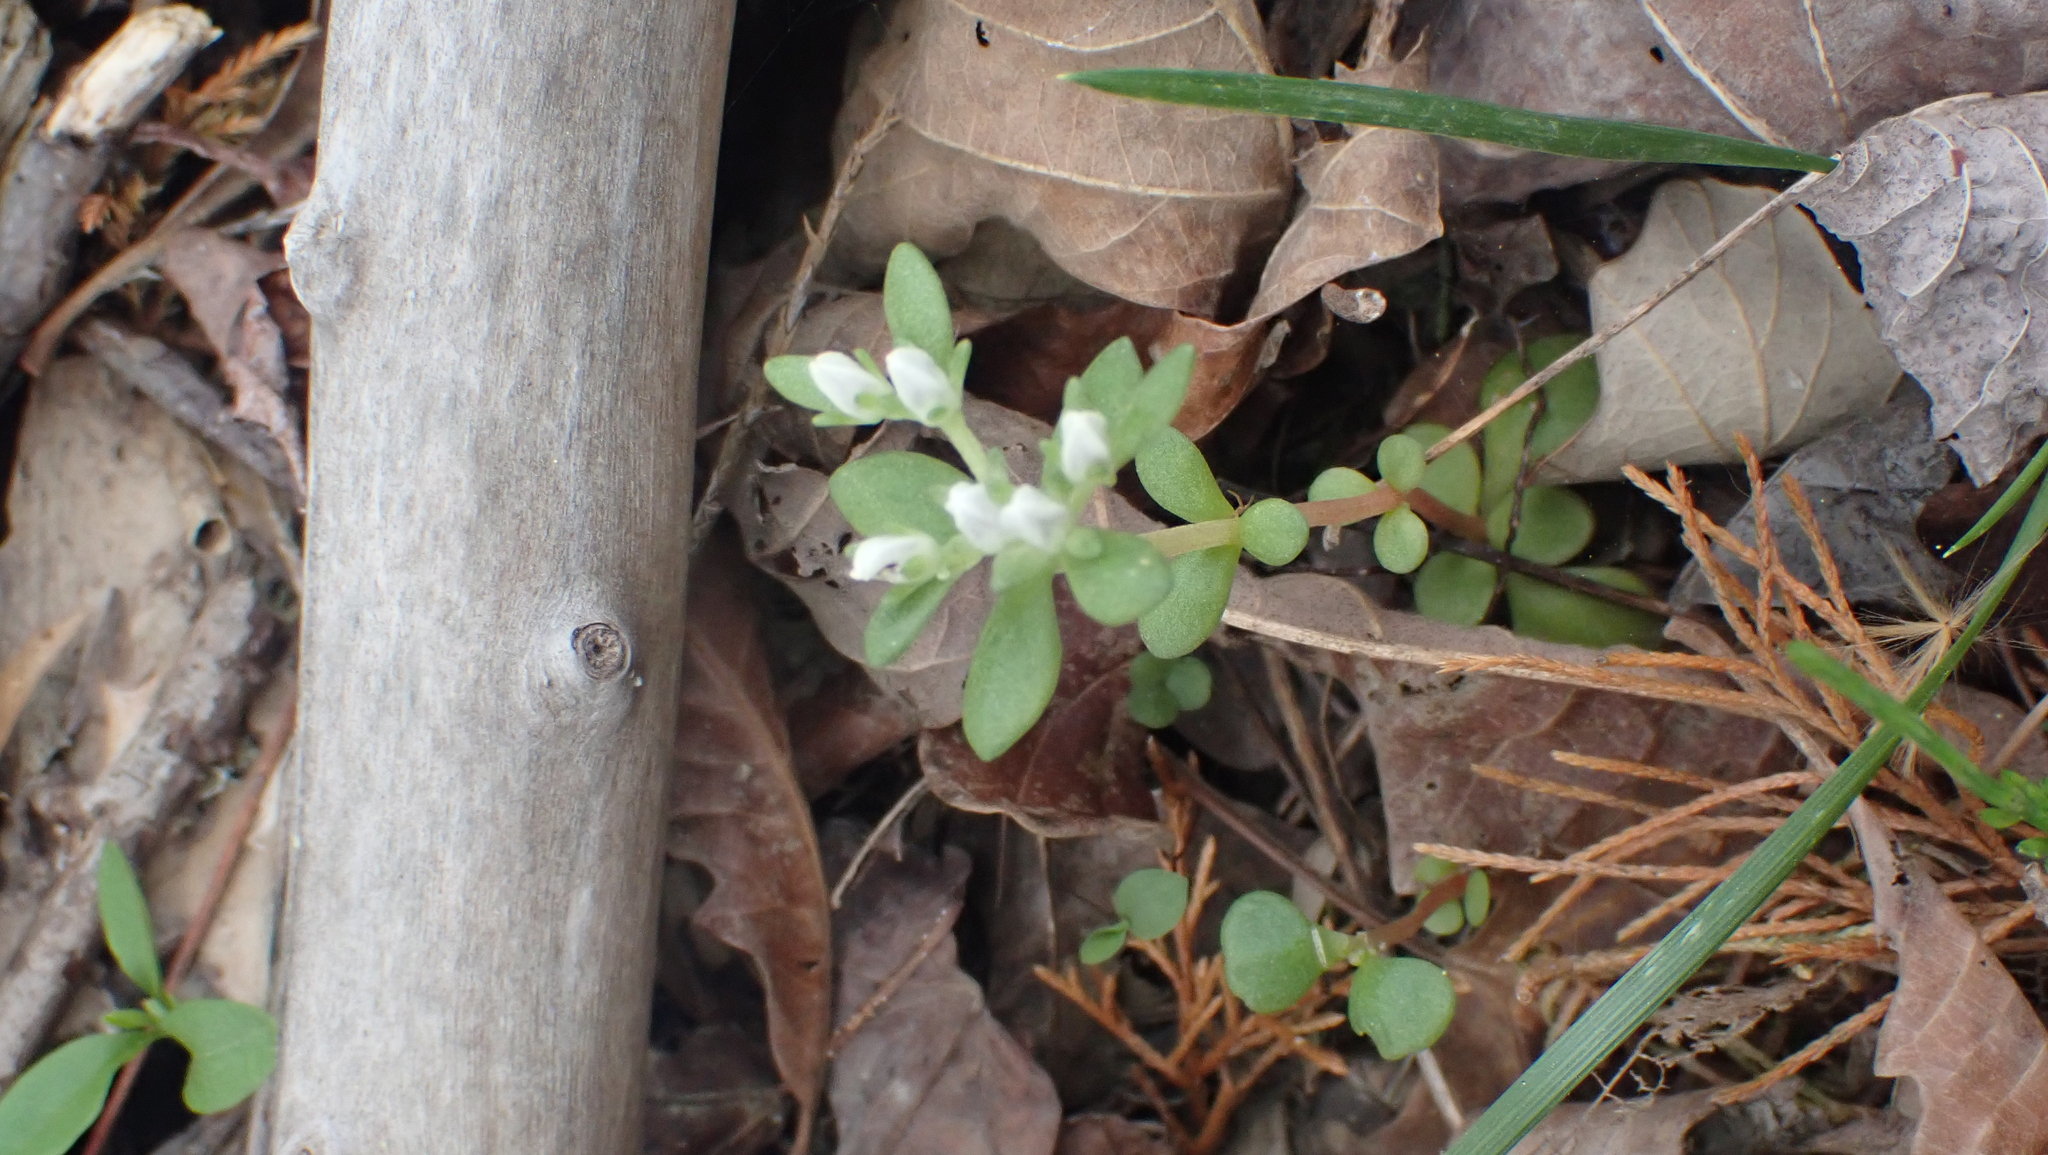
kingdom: Plantae
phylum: Tracheophyta
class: Magnoliopsida
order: Saxifragales
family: Crassulaceae
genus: Sedum
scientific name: Sedum ternatum
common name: Wild stonecrop
